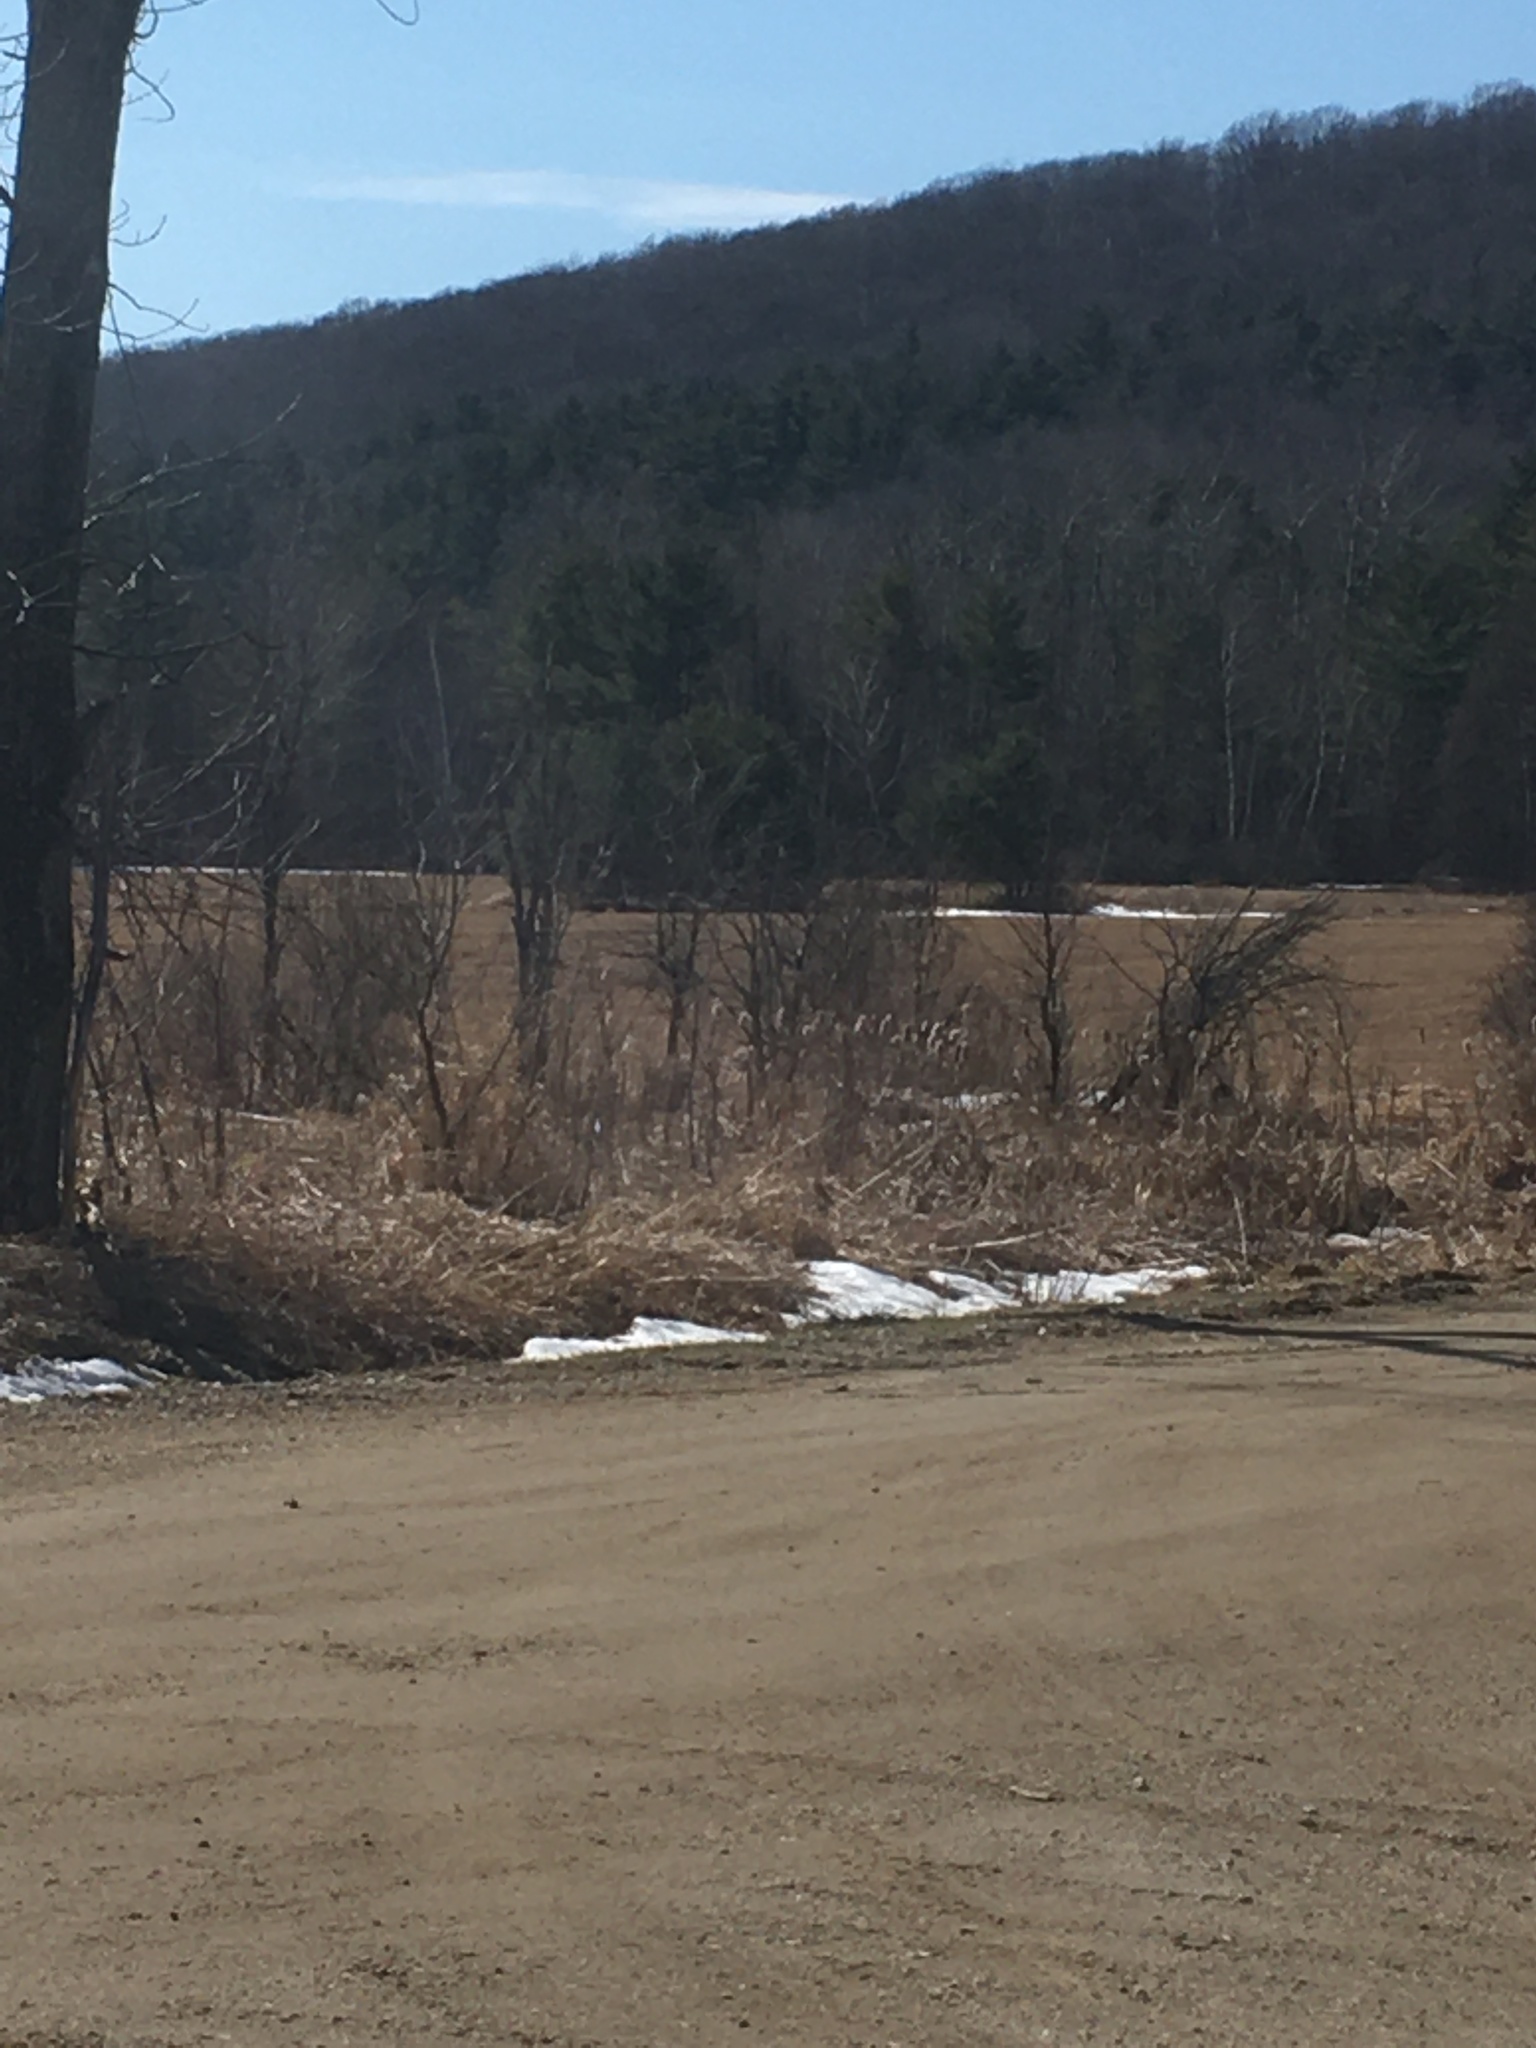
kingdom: Plantae
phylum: Tracheophyta
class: Liliopsida
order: Poales
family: Typhaceae
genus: Typha
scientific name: Typha
